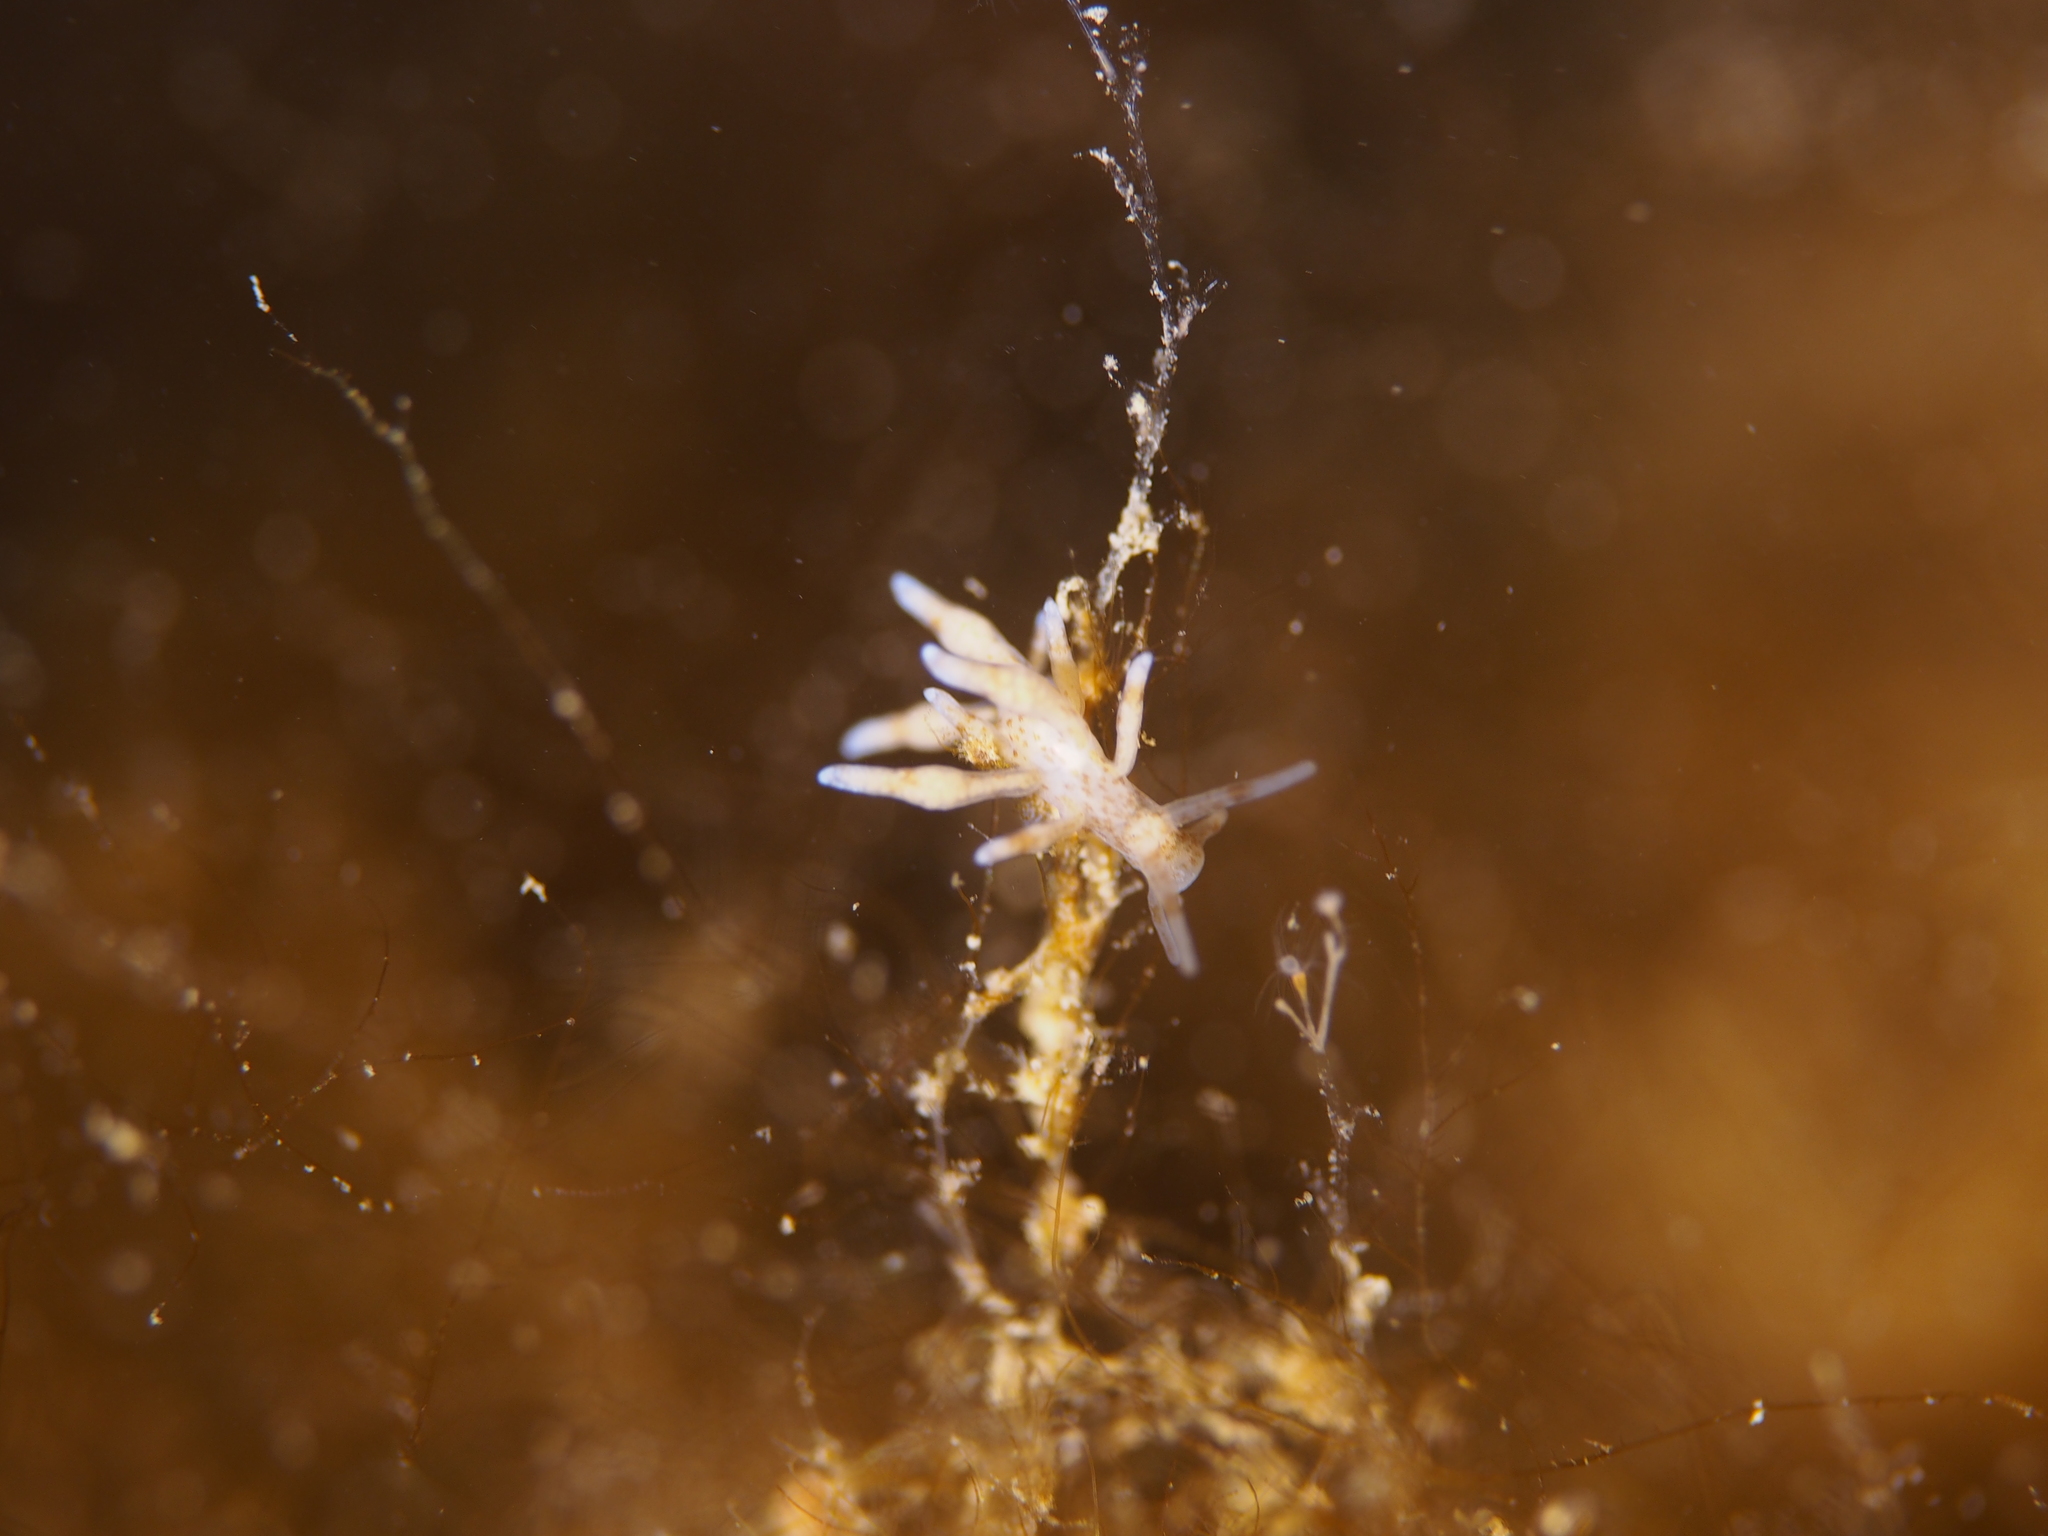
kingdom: Animalia
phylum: Mollusca
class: Gastropoda
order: Nudibranchia
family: Eubranchidae
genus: Eubranchus
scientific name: Eubranchus exiguus
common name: Balloon aeolis
